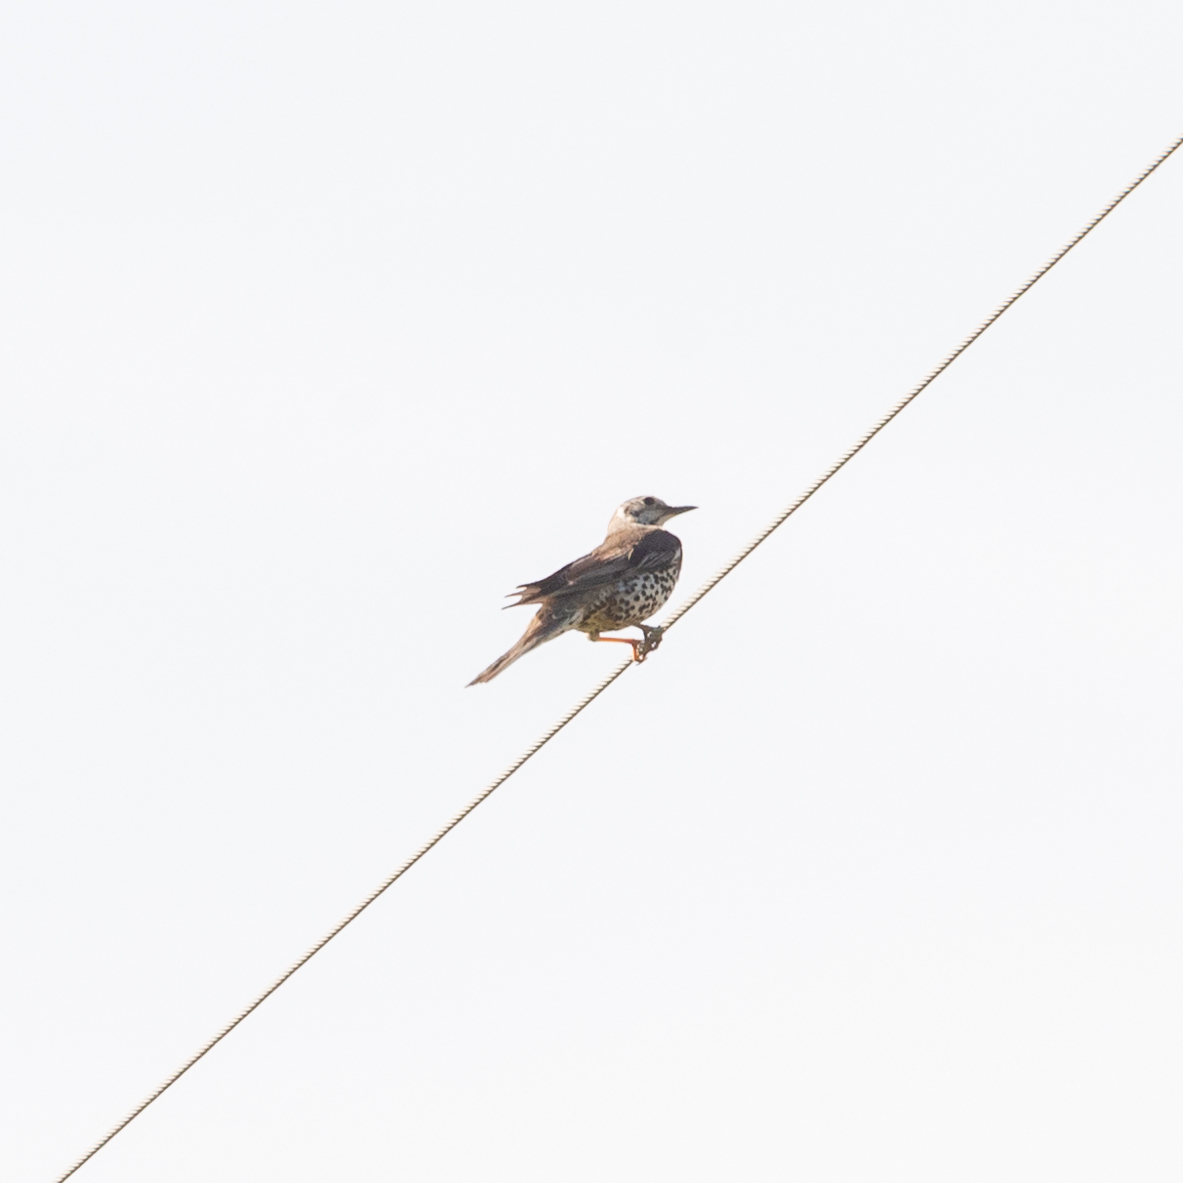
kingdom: Animalia
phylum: Chordata
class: Aves
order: Passeriformes
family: Turdidae
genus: Turdus
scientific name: Turdus viscivorus
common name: Mistle thrush
